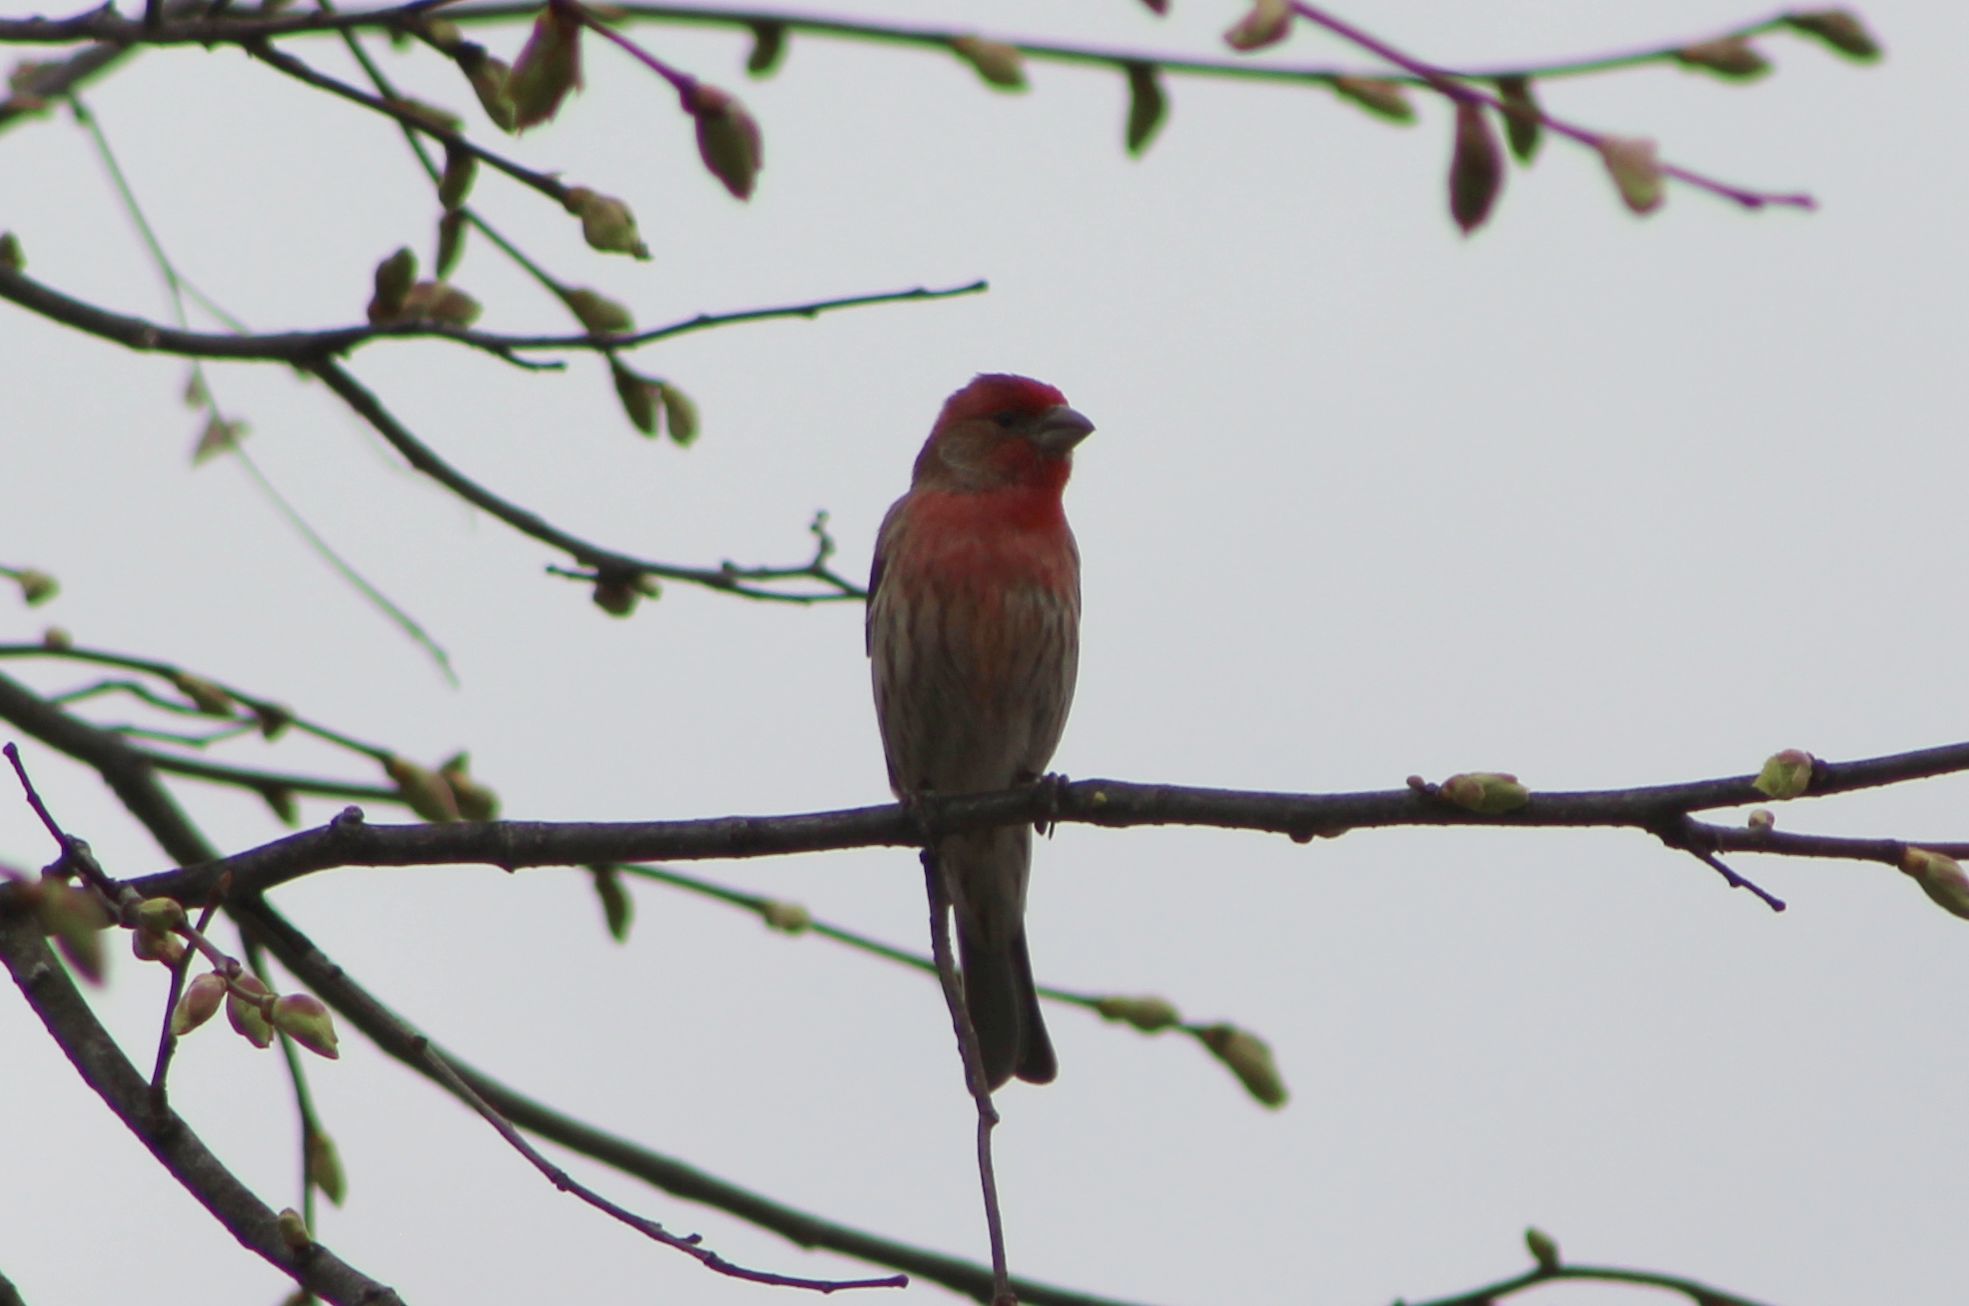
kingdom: Animalia
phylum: Chordata
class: Aves
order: Passeriformes
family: Fringillidae
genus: Haemorhous
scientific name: Haemorhous mexicanus
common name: House finch
